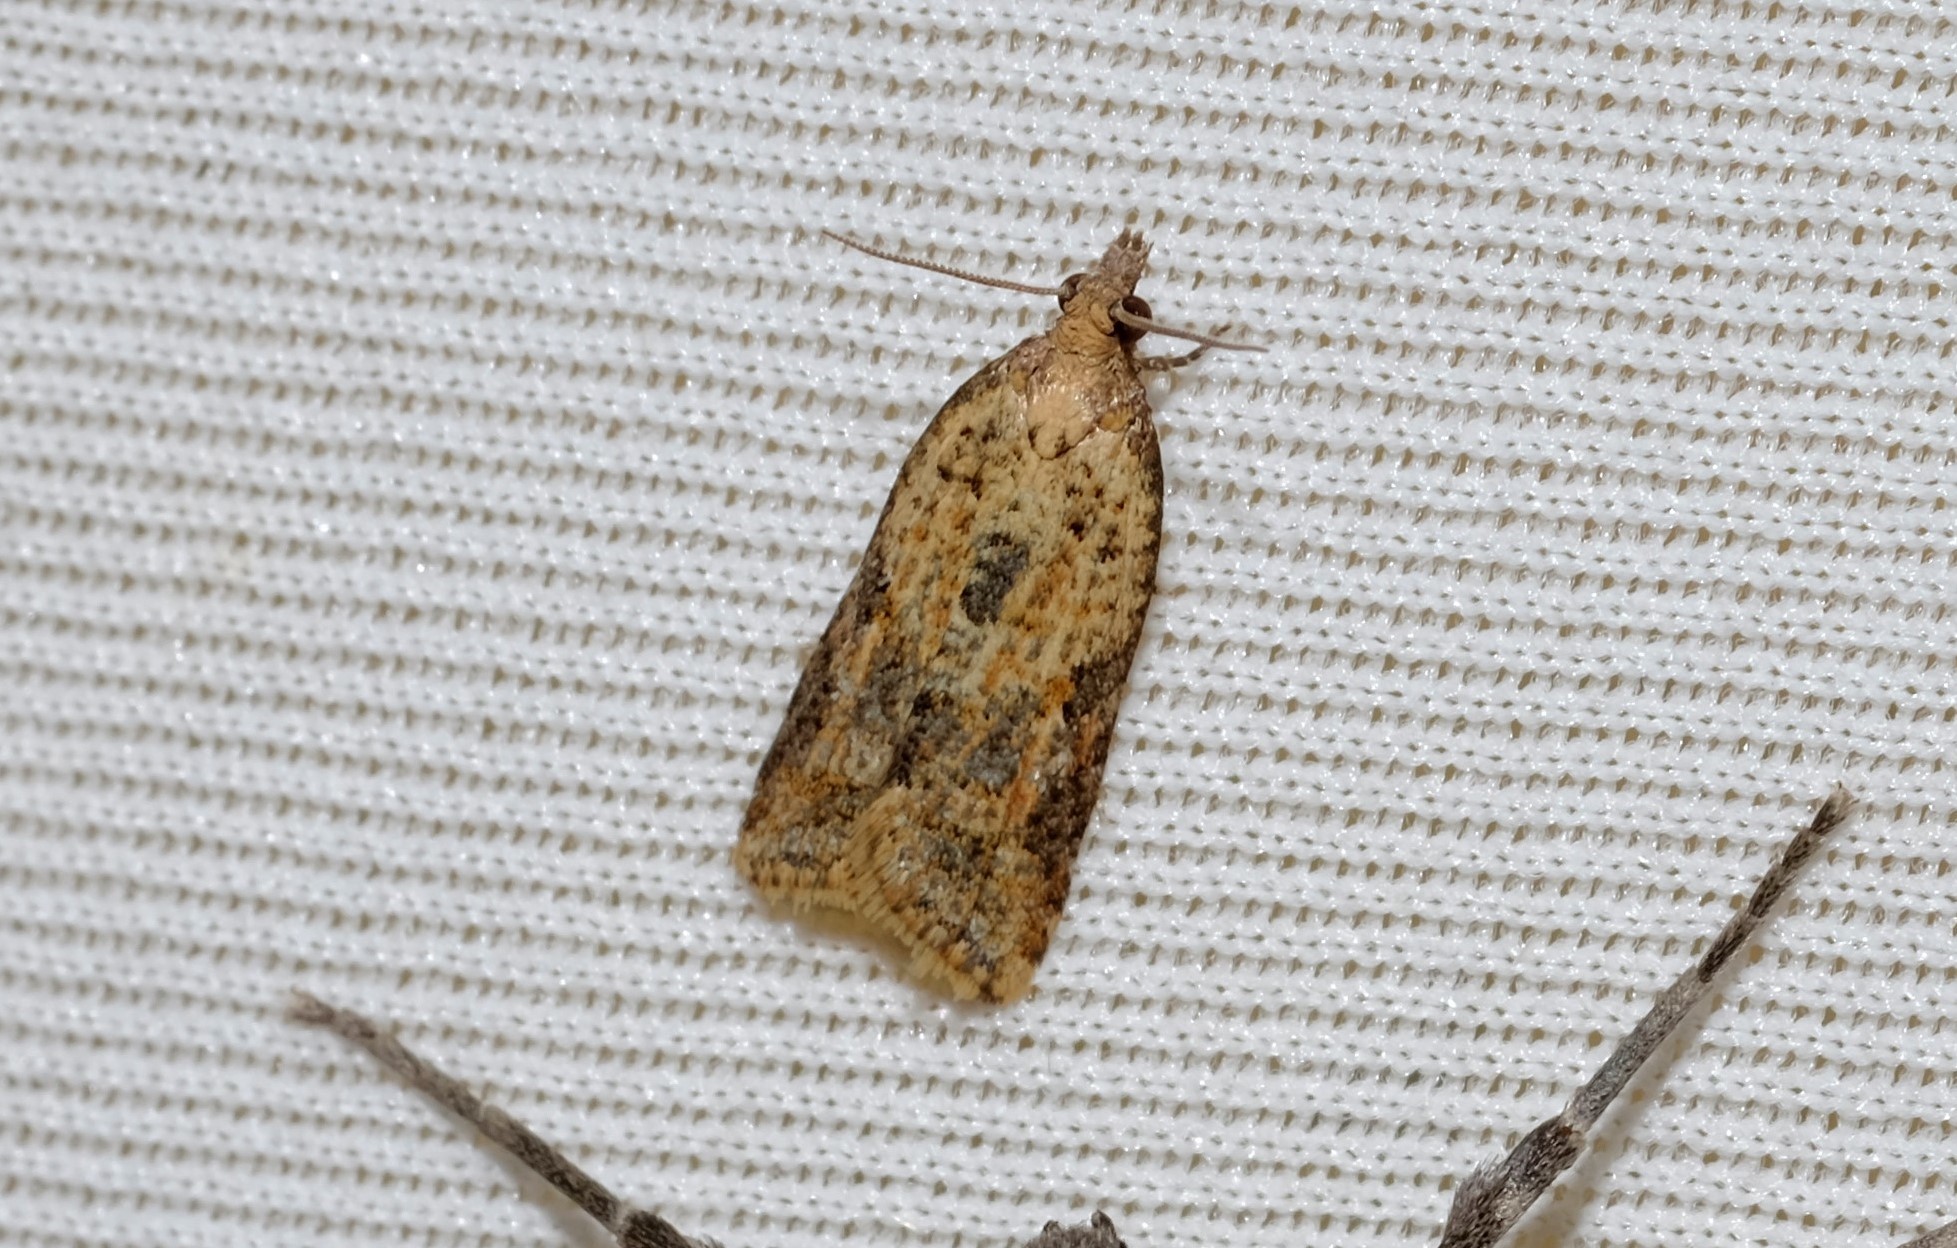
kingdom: Animalia
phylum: Arthropoda
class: Insecta
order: Lepidoptera
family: Tortricidae
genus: Epiphyas
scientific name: Epiphyas postvittana
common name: Light brown apple moth
